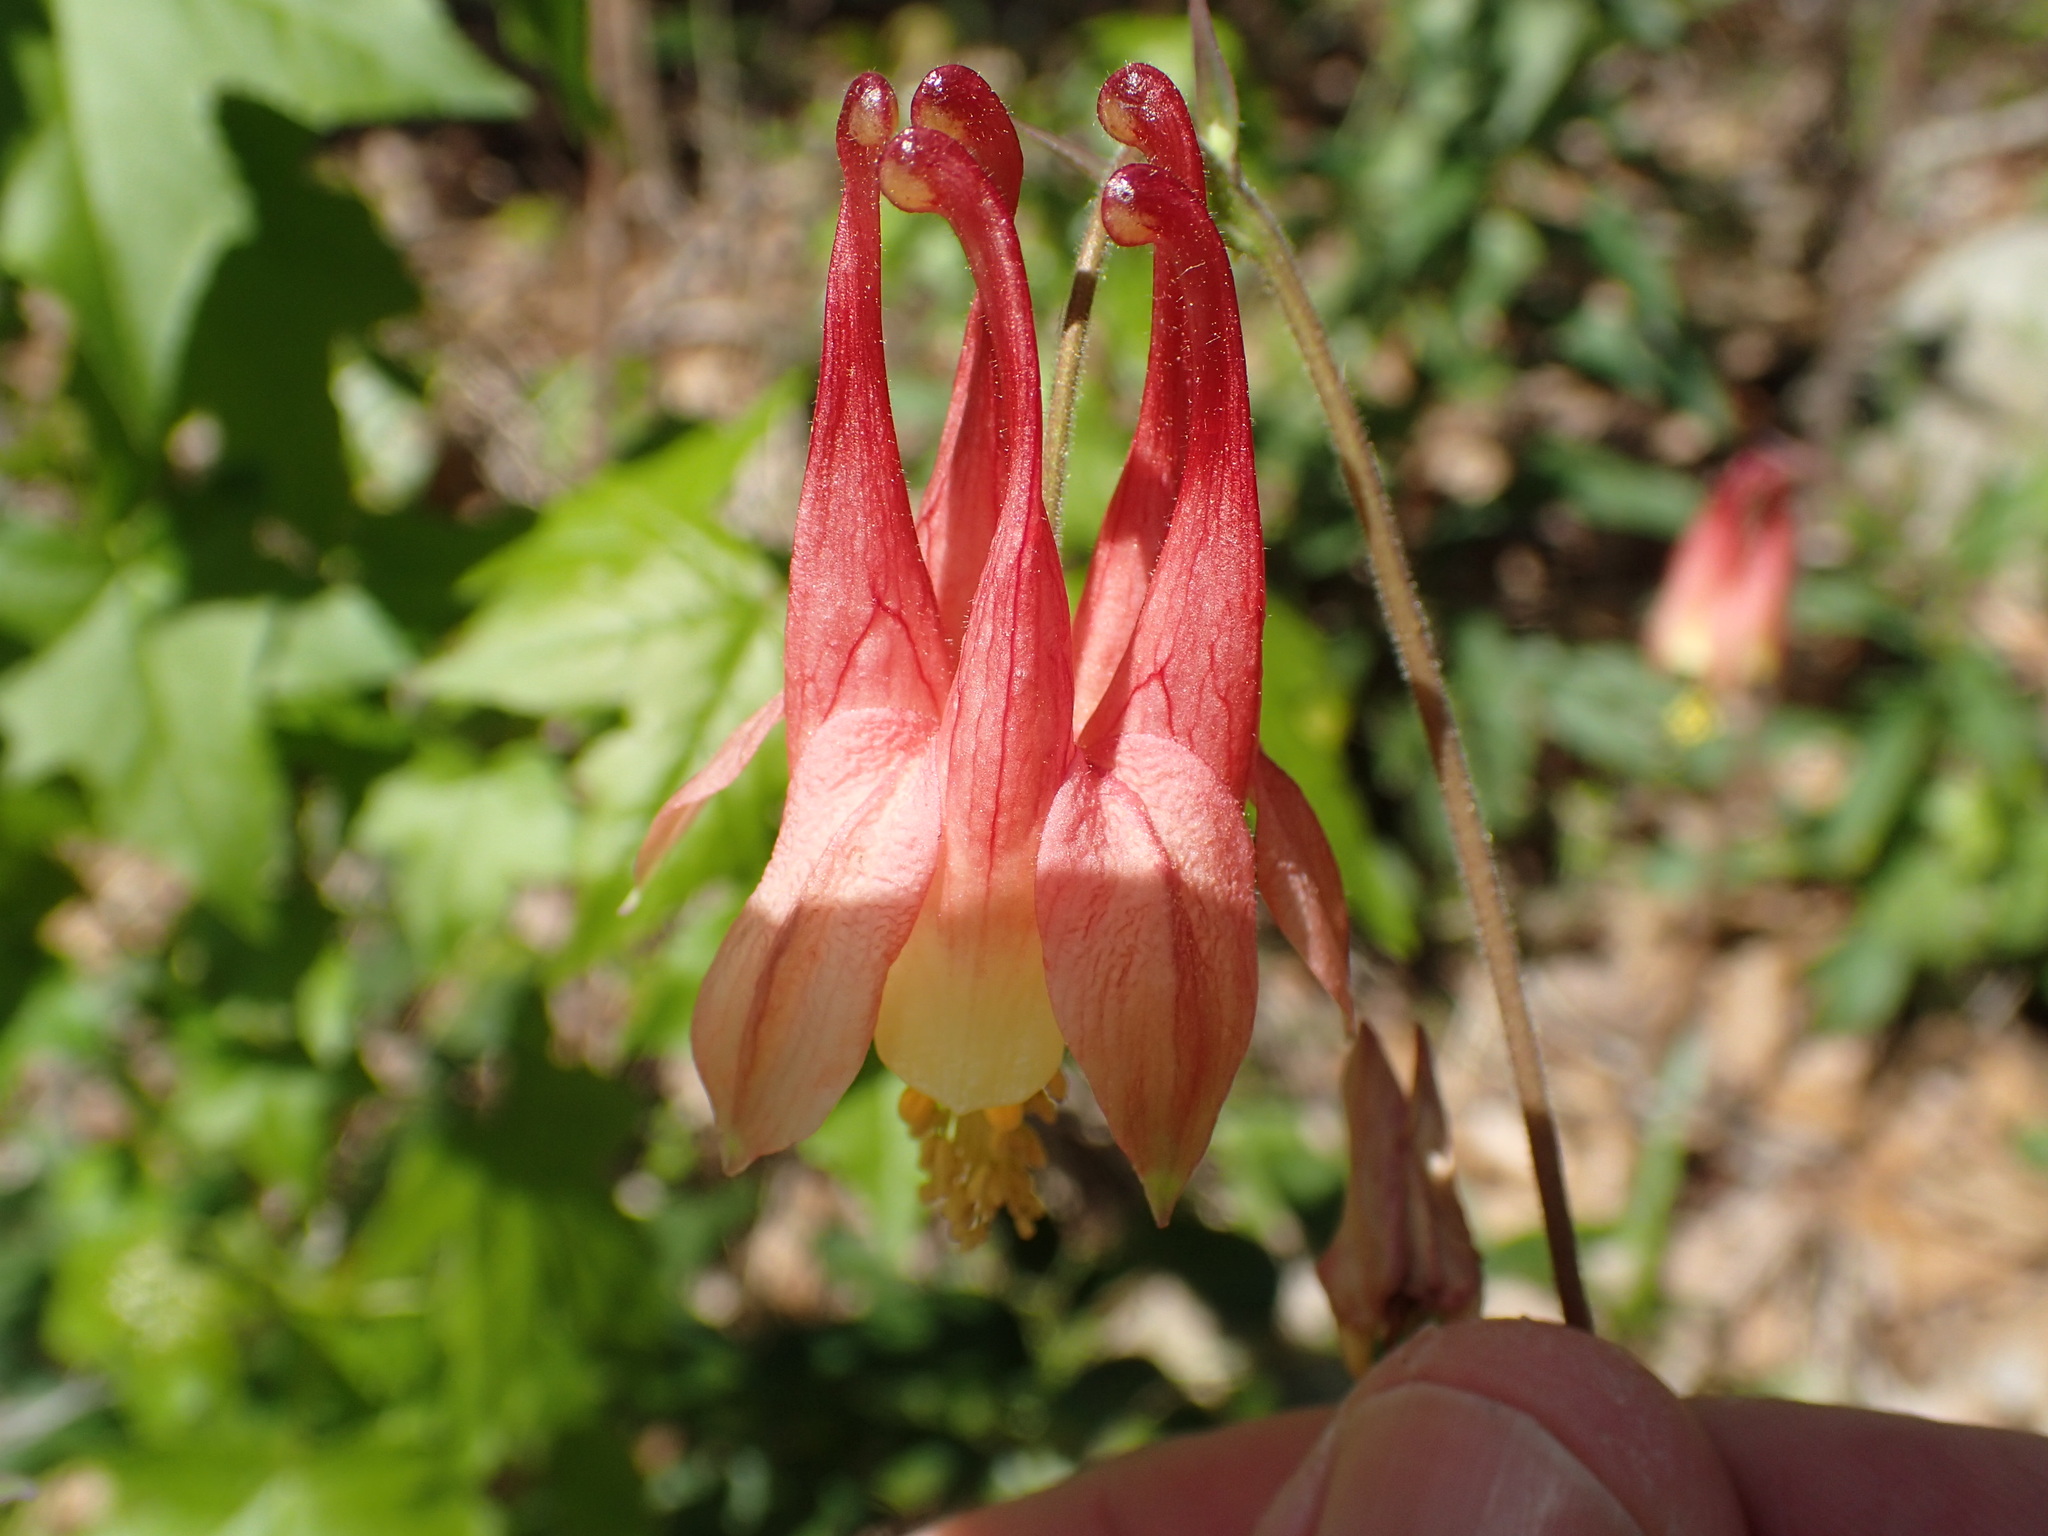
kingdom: Plantae
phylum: Tracheophyta
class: Magnoliopsida
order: Ranunculales
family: Ranunculaceae
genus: Aquilegia
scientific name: Aquilegia canadensis
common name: American columbine
